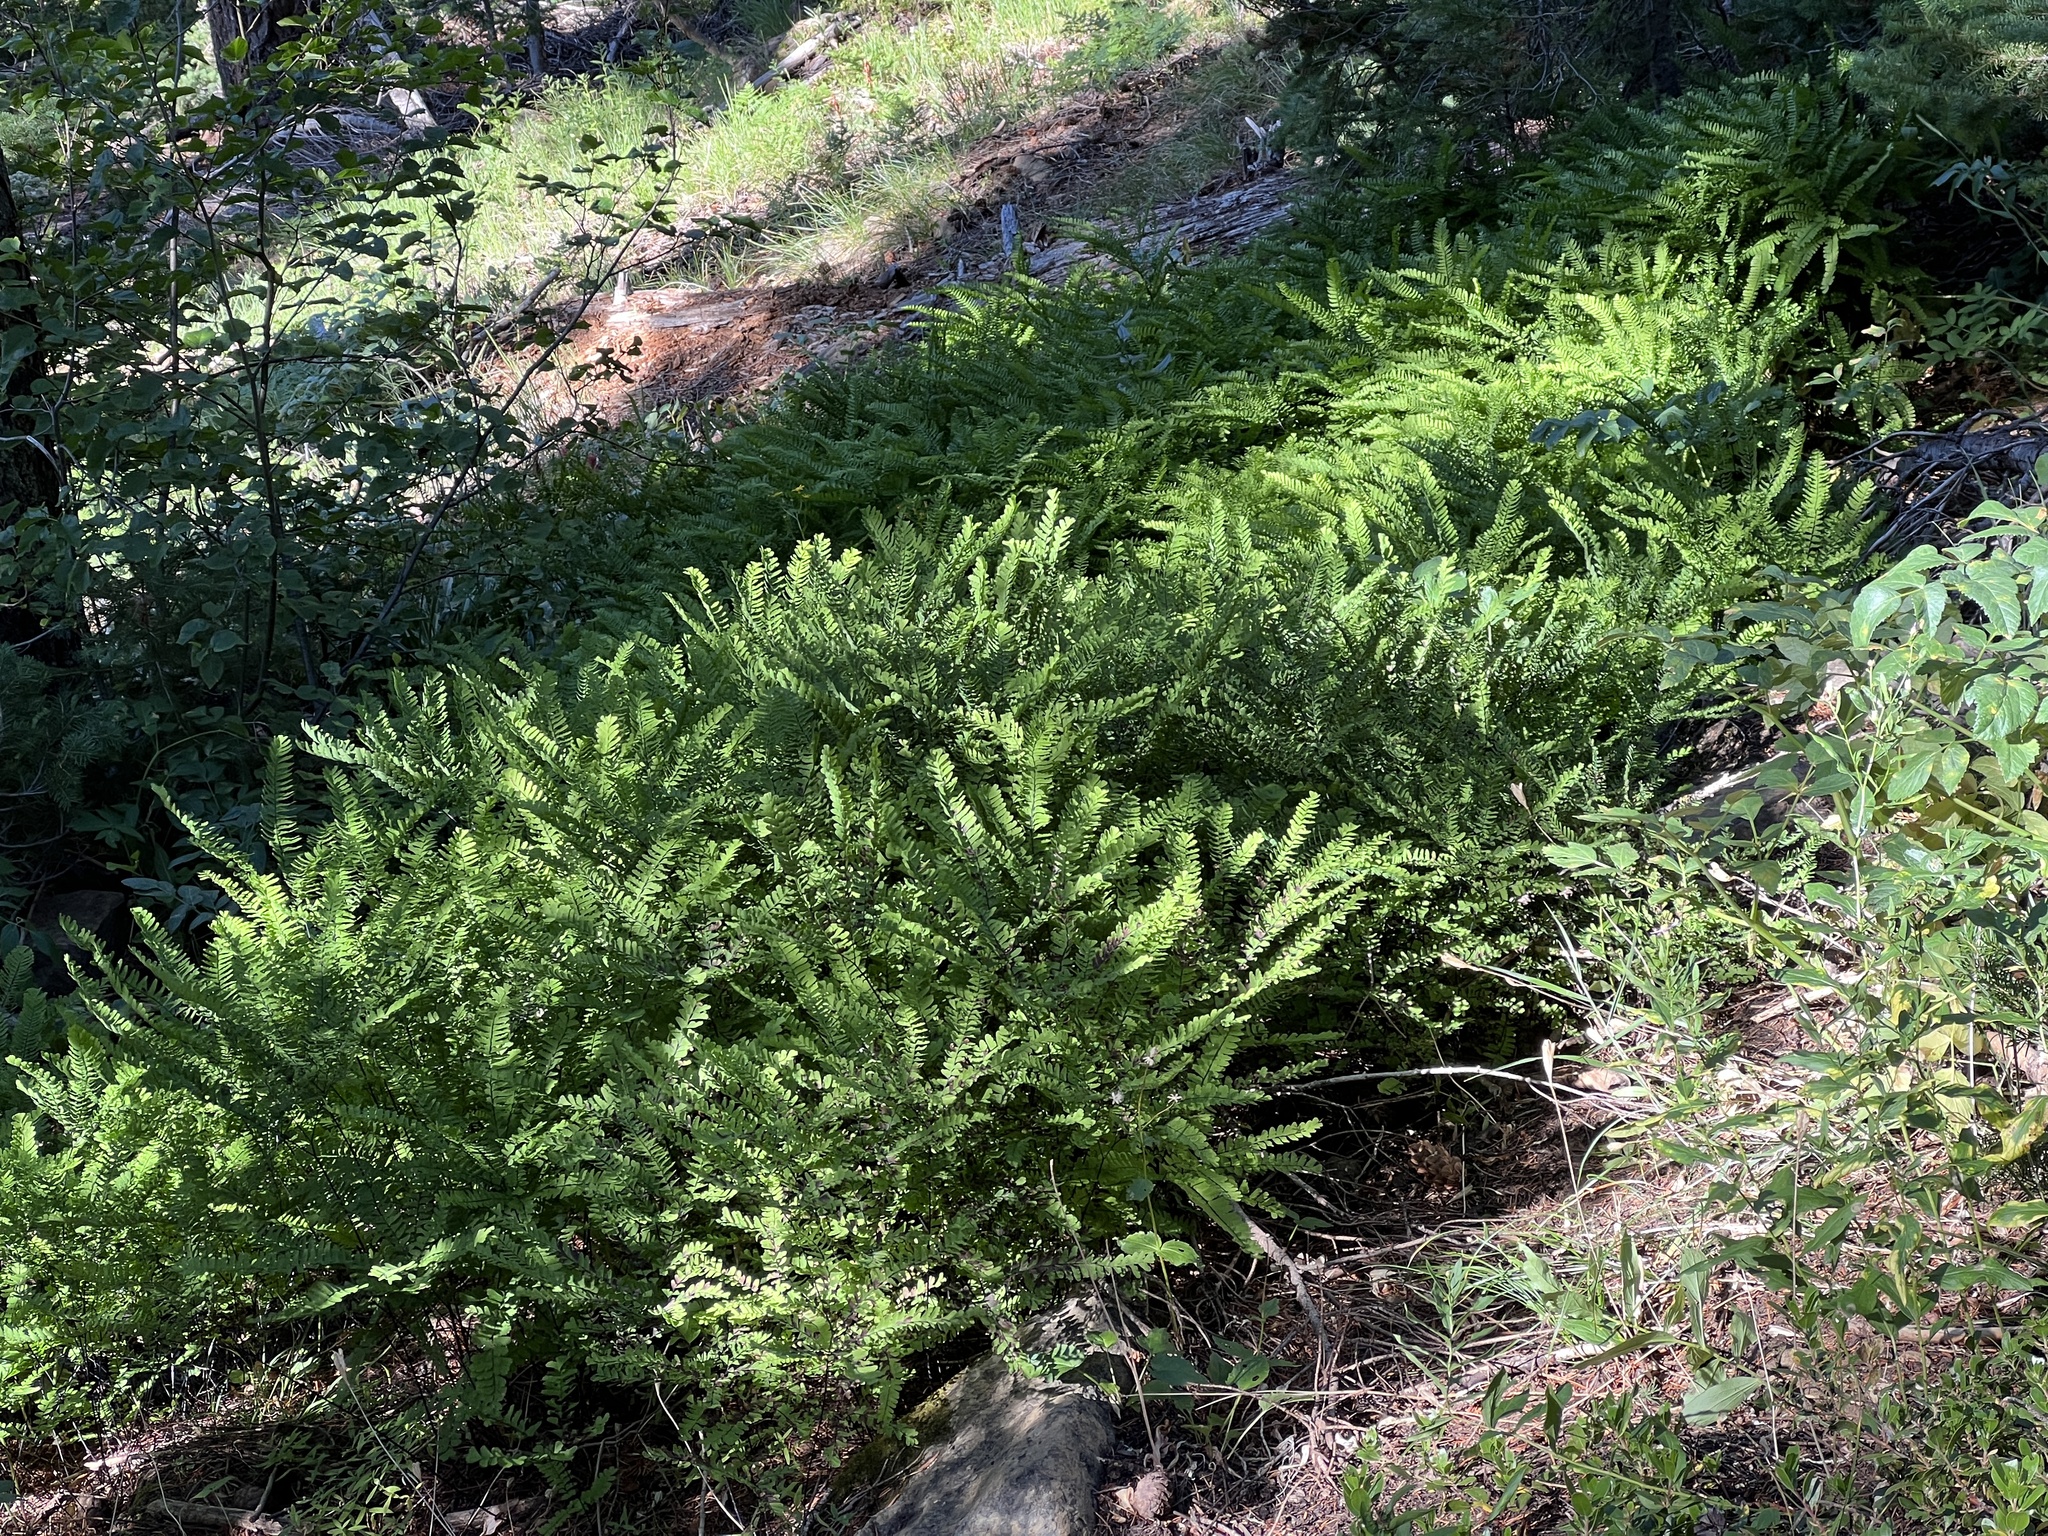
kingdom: Plantae
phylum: Tracheophyta
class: Polypodiopsida
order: Polypodiales
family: Pteridaceae
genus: Adiantum
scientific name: Adiantum aleuticum
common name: Aleutian maidenhair fern
